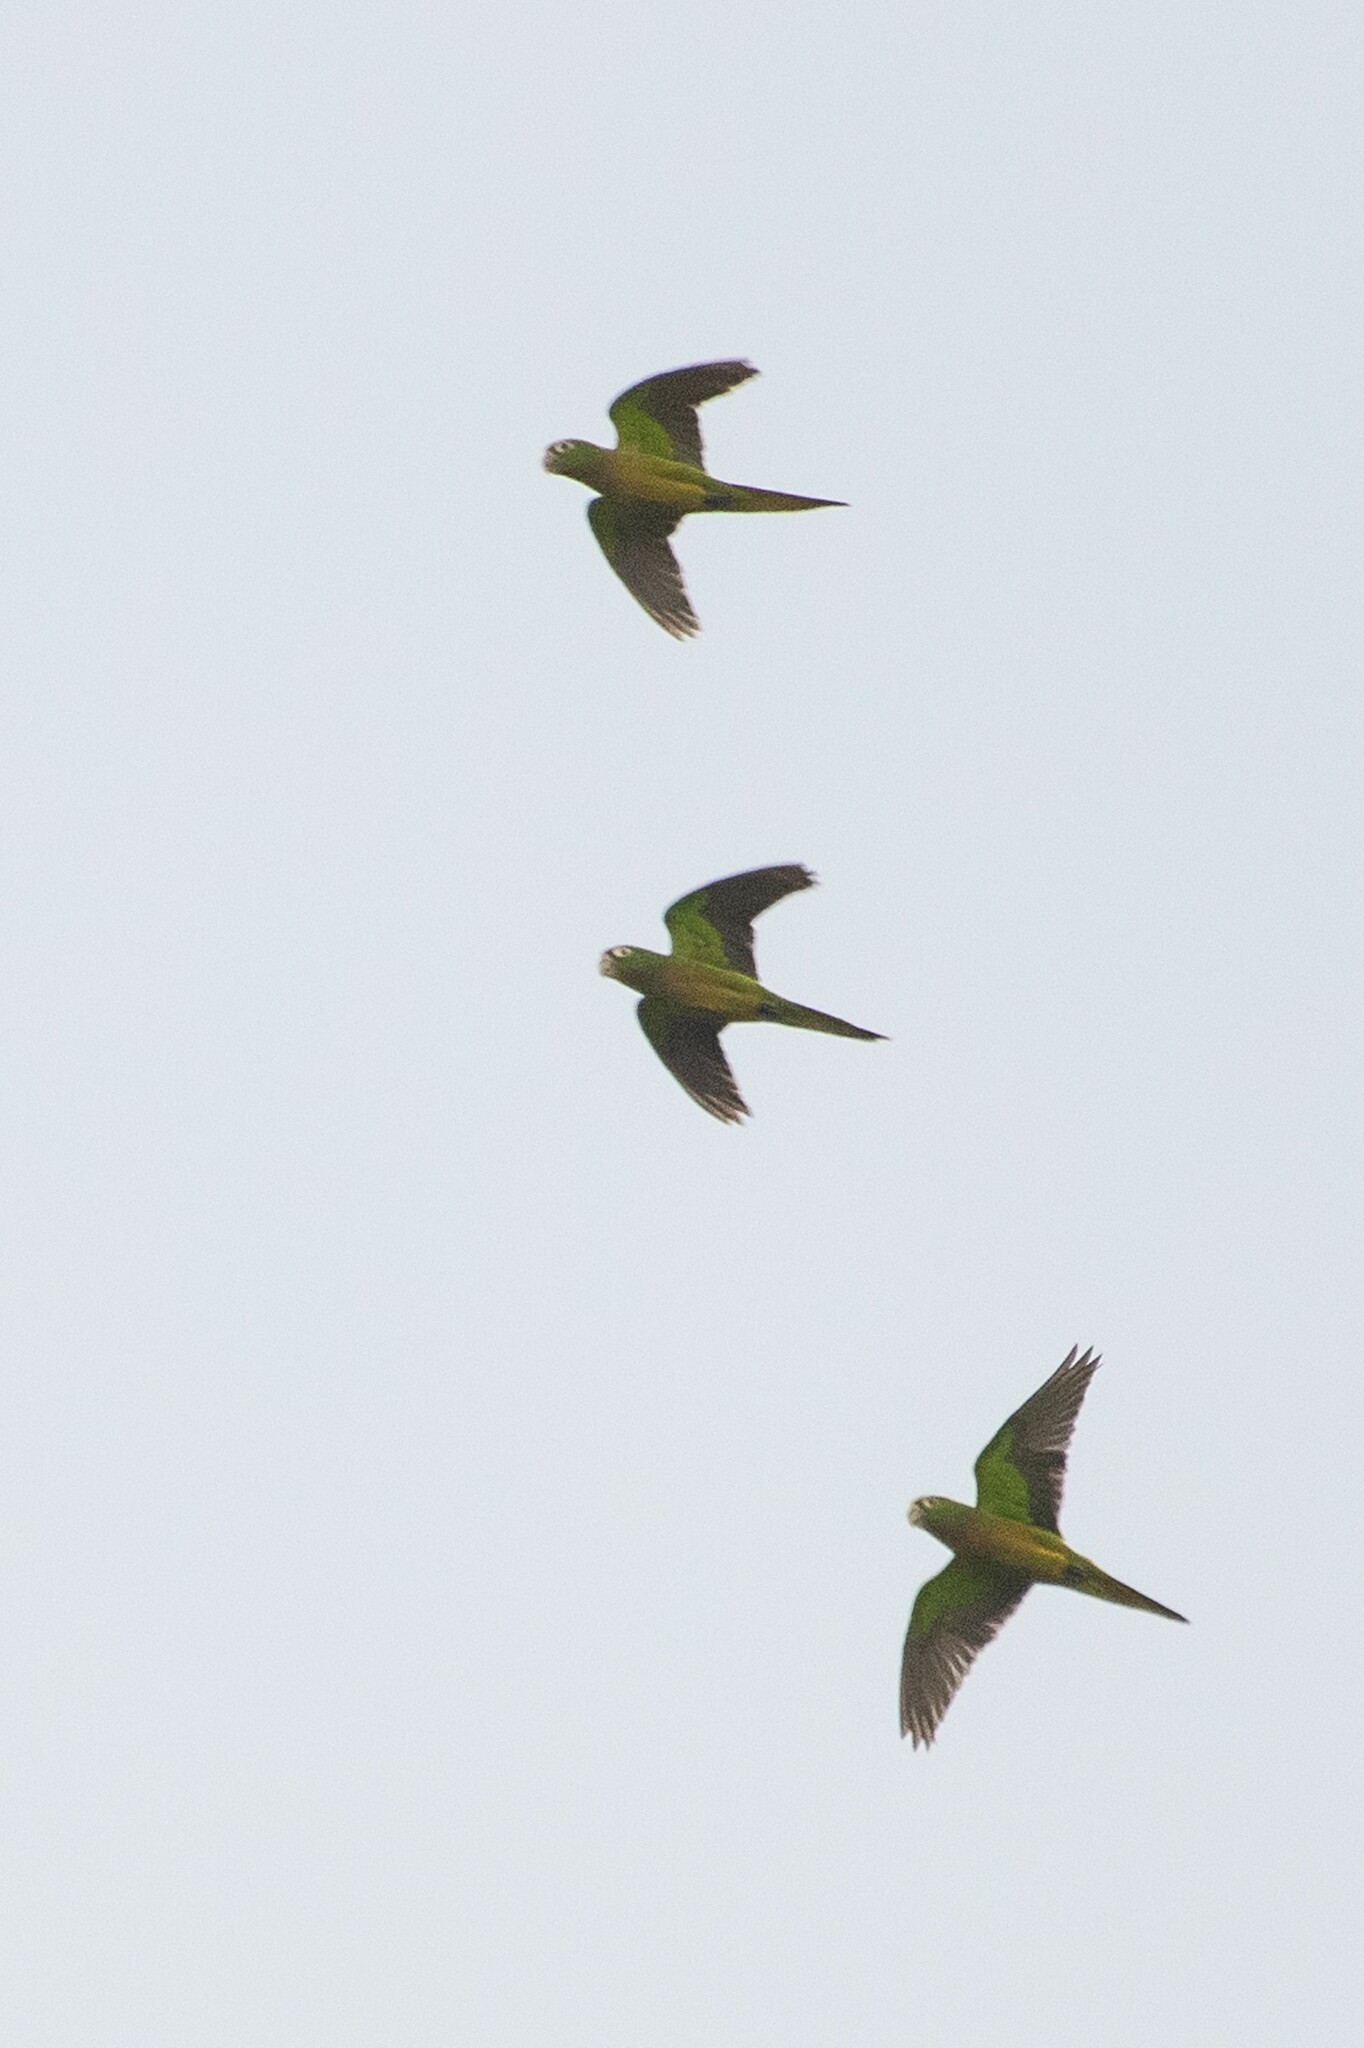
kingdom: Animalia
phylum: Chordata
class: Aves
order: Psittaciformes
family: Psittacidae
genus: Aratinga
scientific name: Aratinga nana
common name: Olive-throated parakeet
